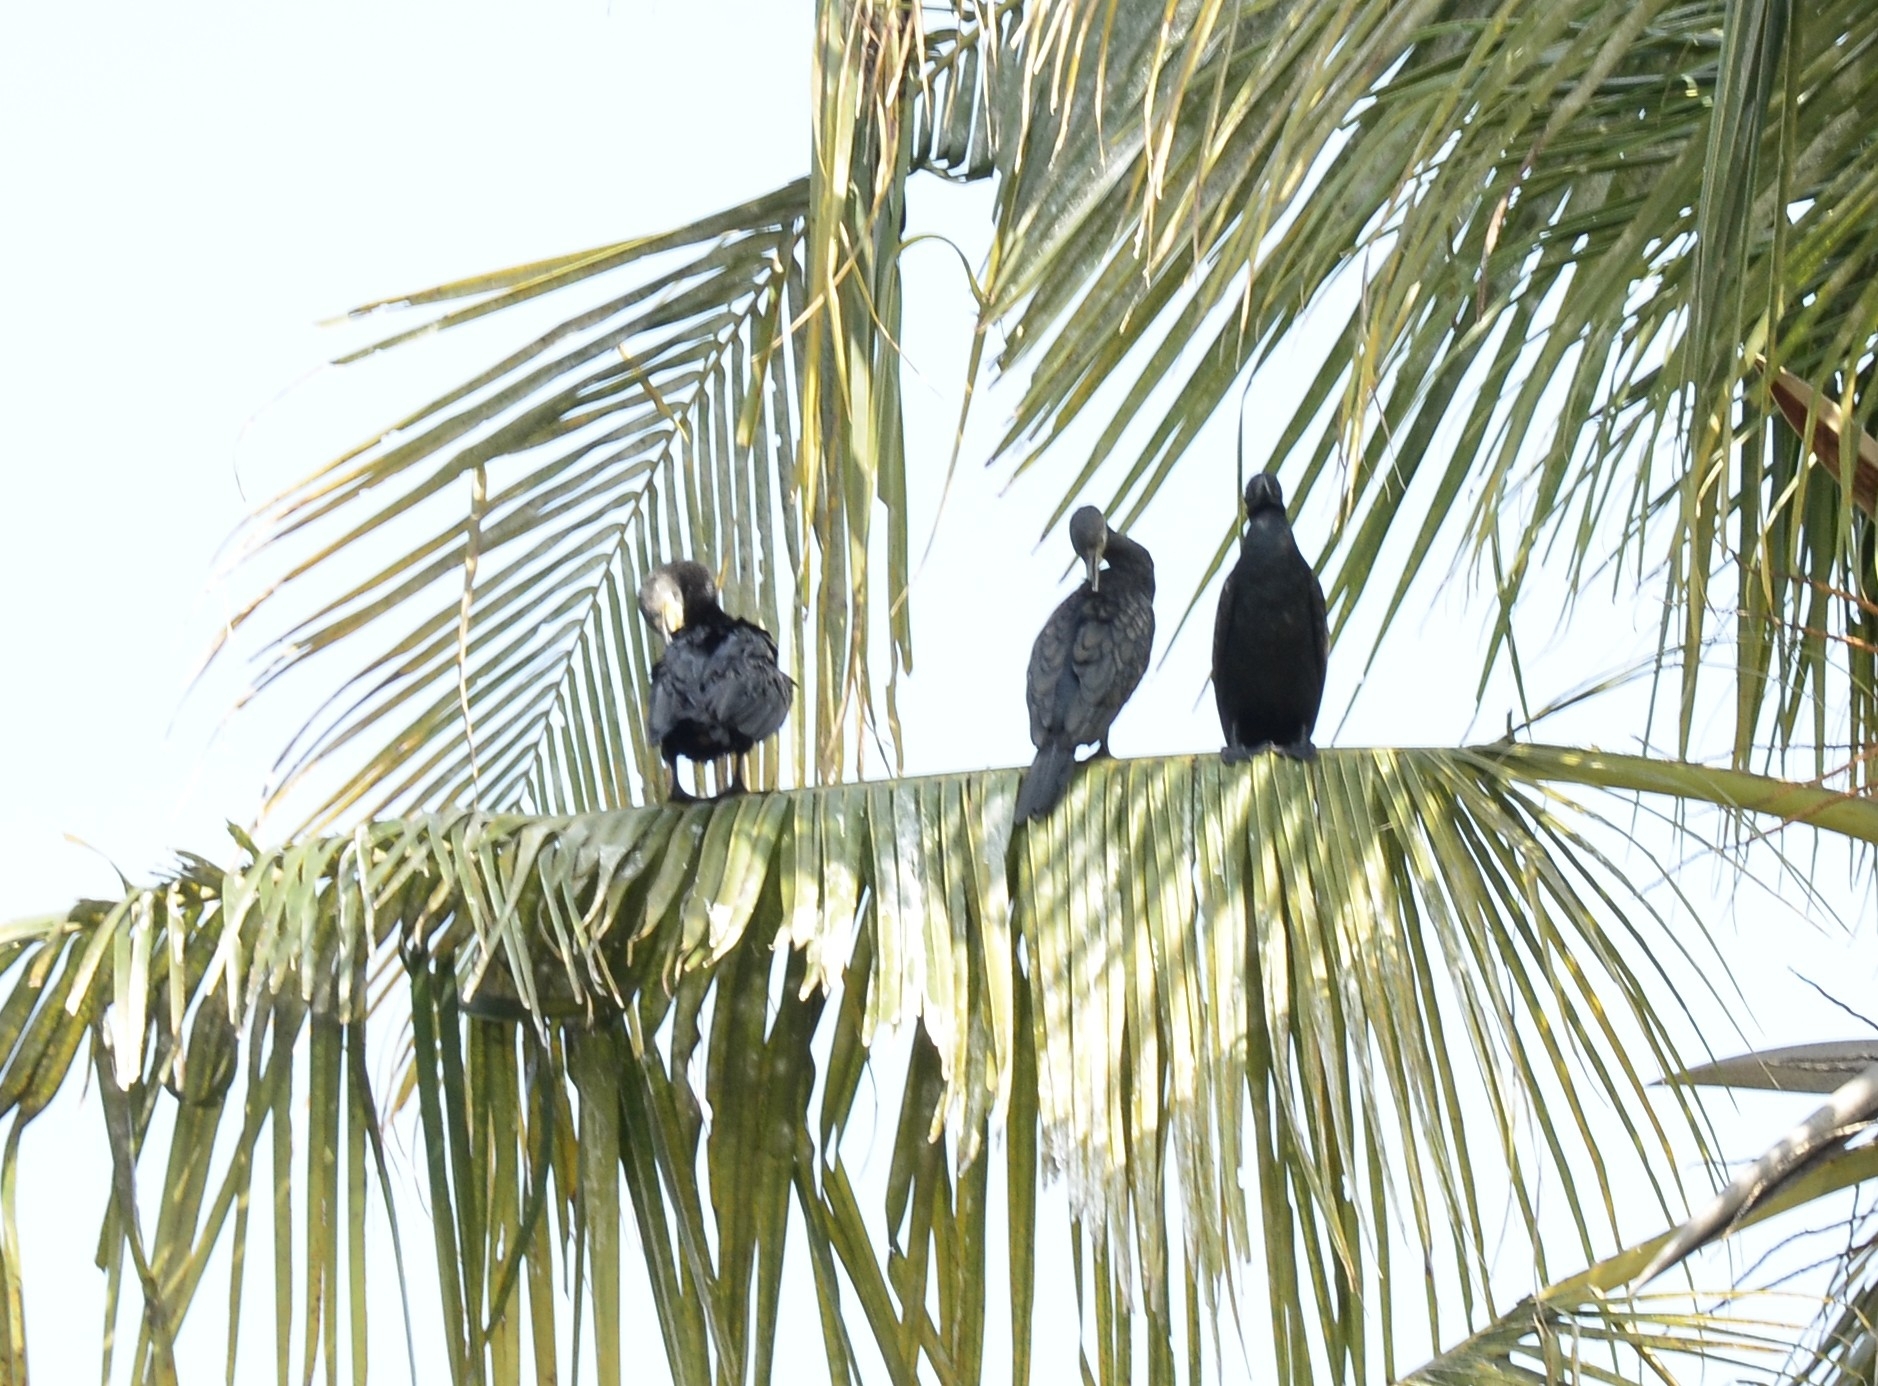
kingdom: Animalia
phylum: Chordata
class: Aves
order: Suliformes
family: Phalacrocoracidae
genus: Phalacrocorax
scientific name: Phalacrocorax fuscicollis
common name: Indian cormorant
